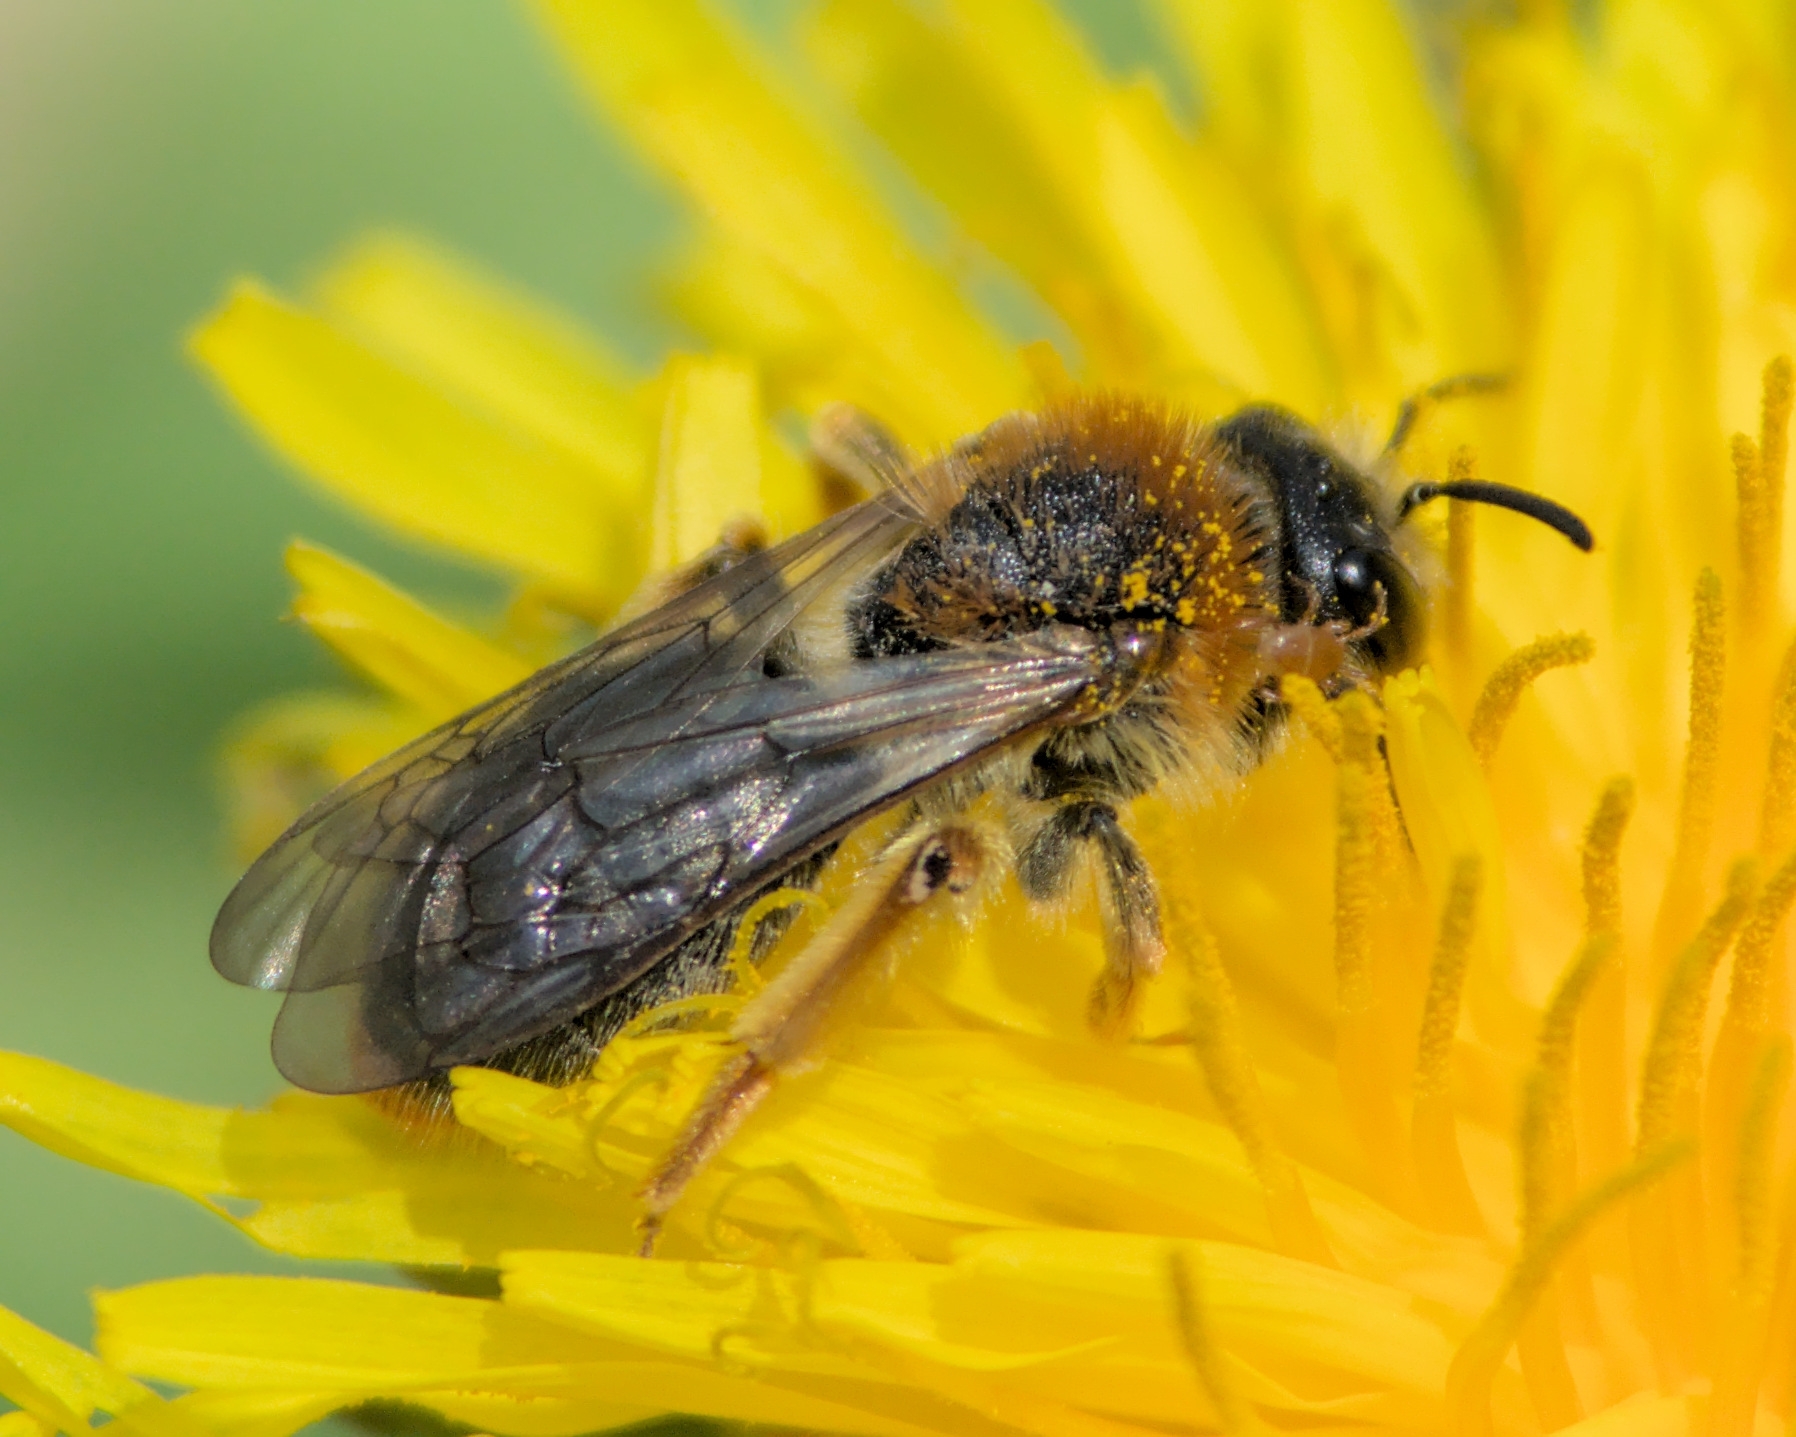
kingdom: Animalia
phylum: Arthropoda
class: Insecta
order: Hymenoptera
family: Andrenidae
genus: Andrena
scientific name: Andrena haemorrhoa
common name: Early mining bee
